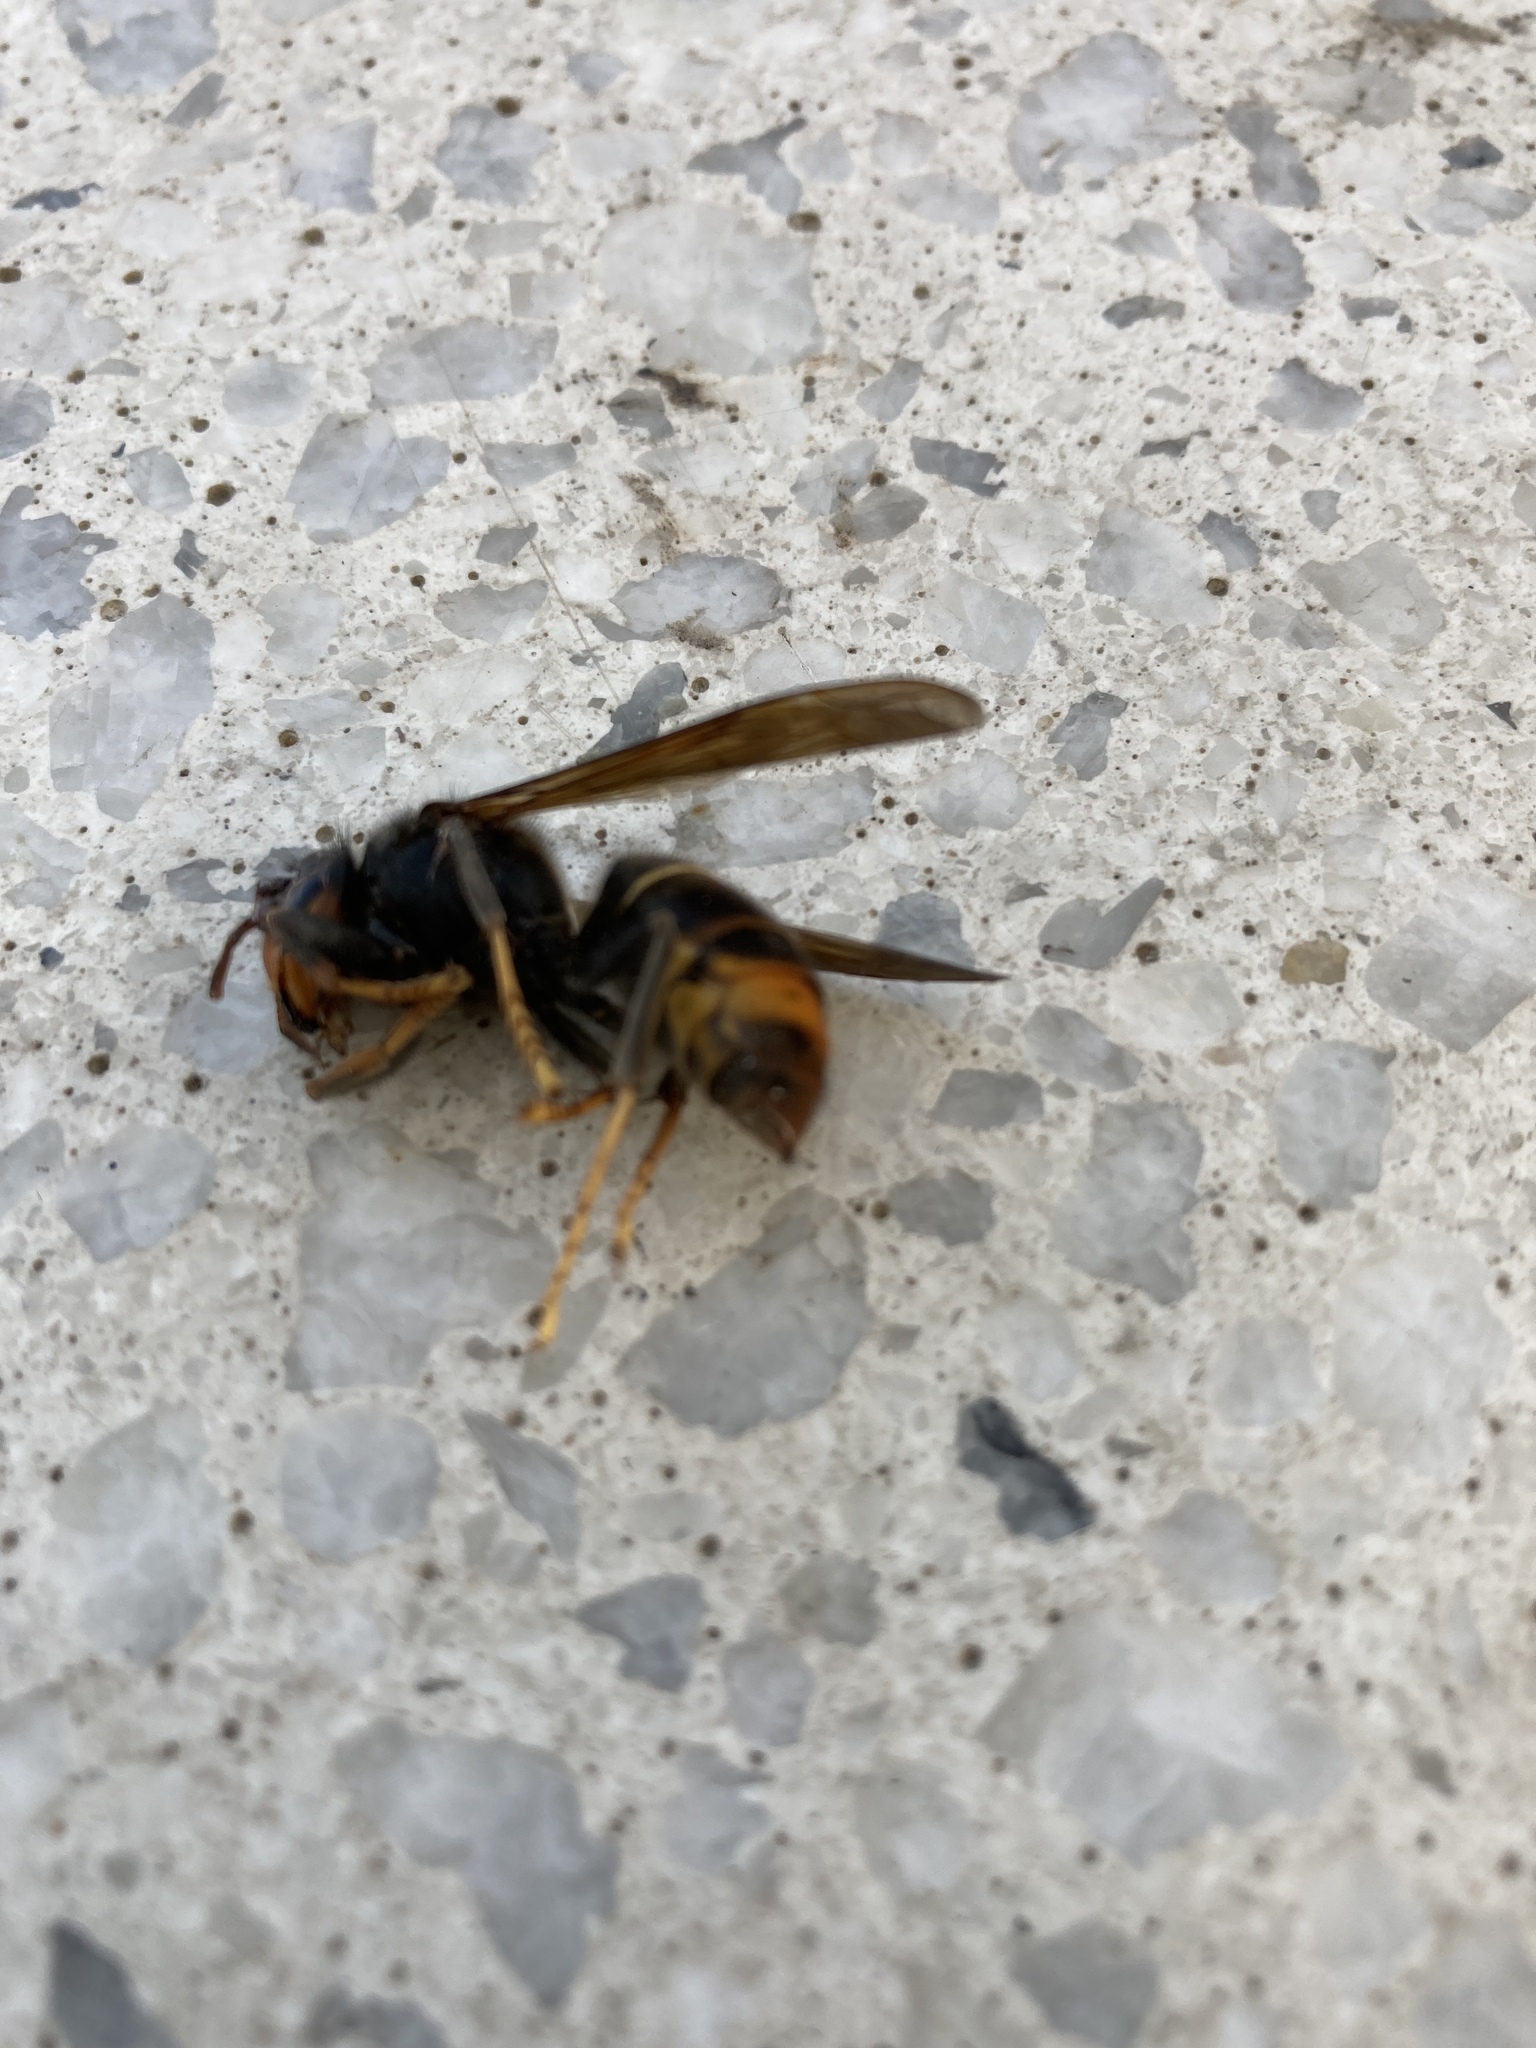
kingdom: Animalia
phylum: Arthropoda
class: Insecta
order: Hymenoptera
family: Vespidae
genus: Vespa
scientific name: Vespa velutina
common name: Asian hornet
